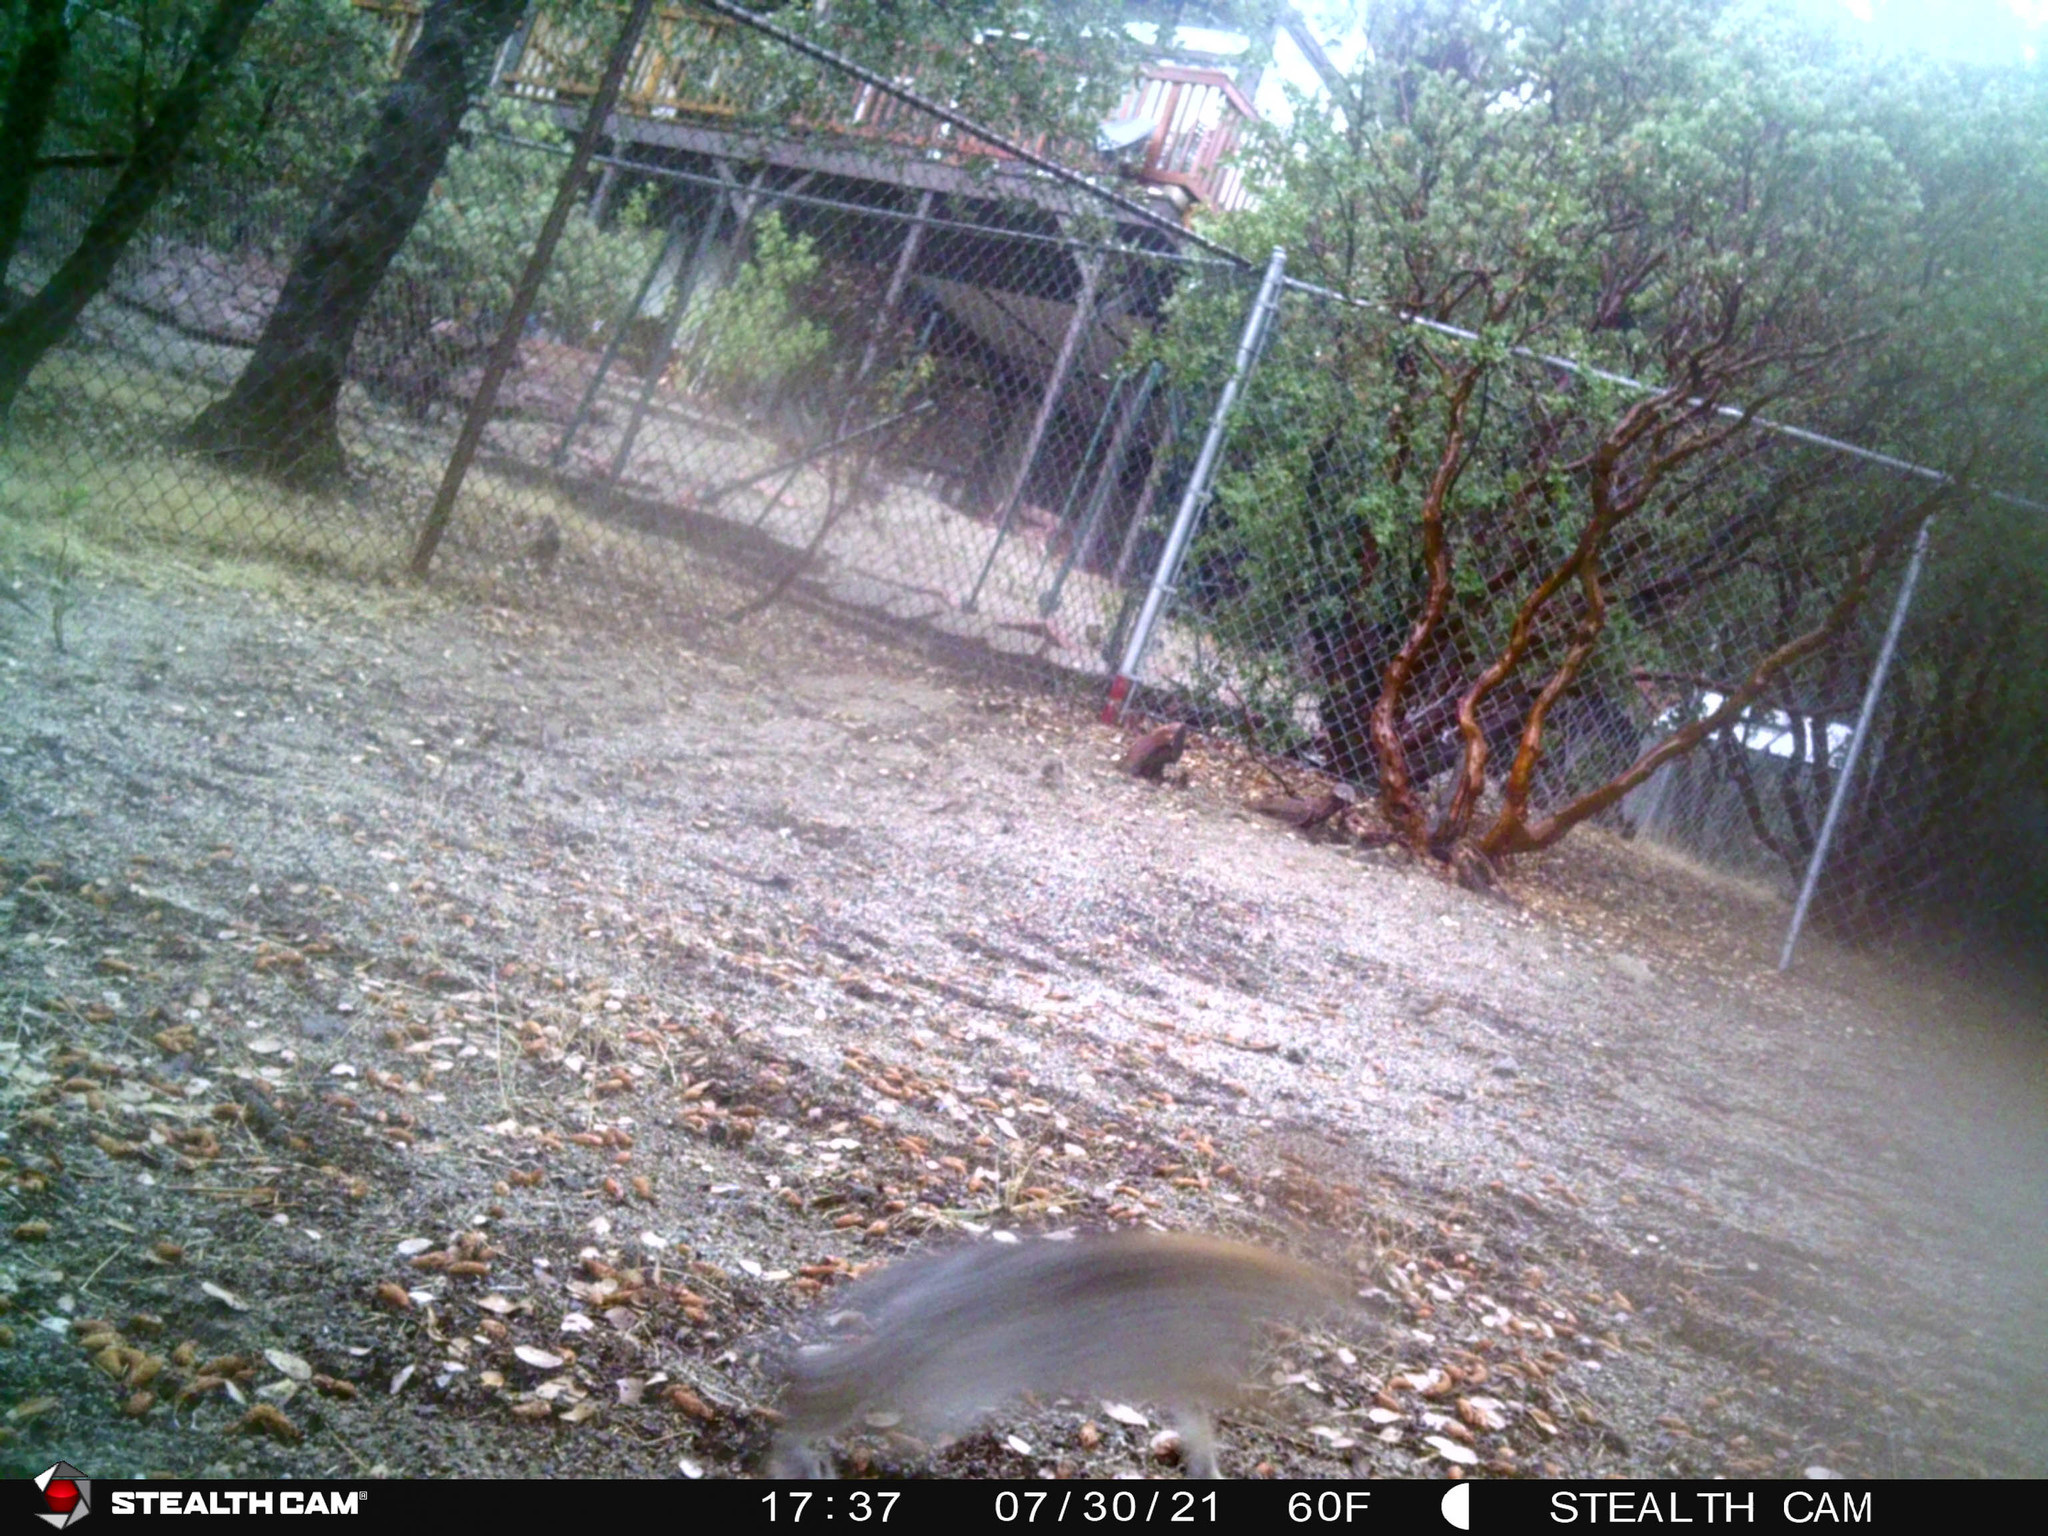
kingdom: Animalia
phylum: Chordata
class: Mammalia
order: Lagomorpha
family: Leporidae
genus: Sylvilagus
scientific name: Sylvilagus audubonii
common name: Desert cottontail
